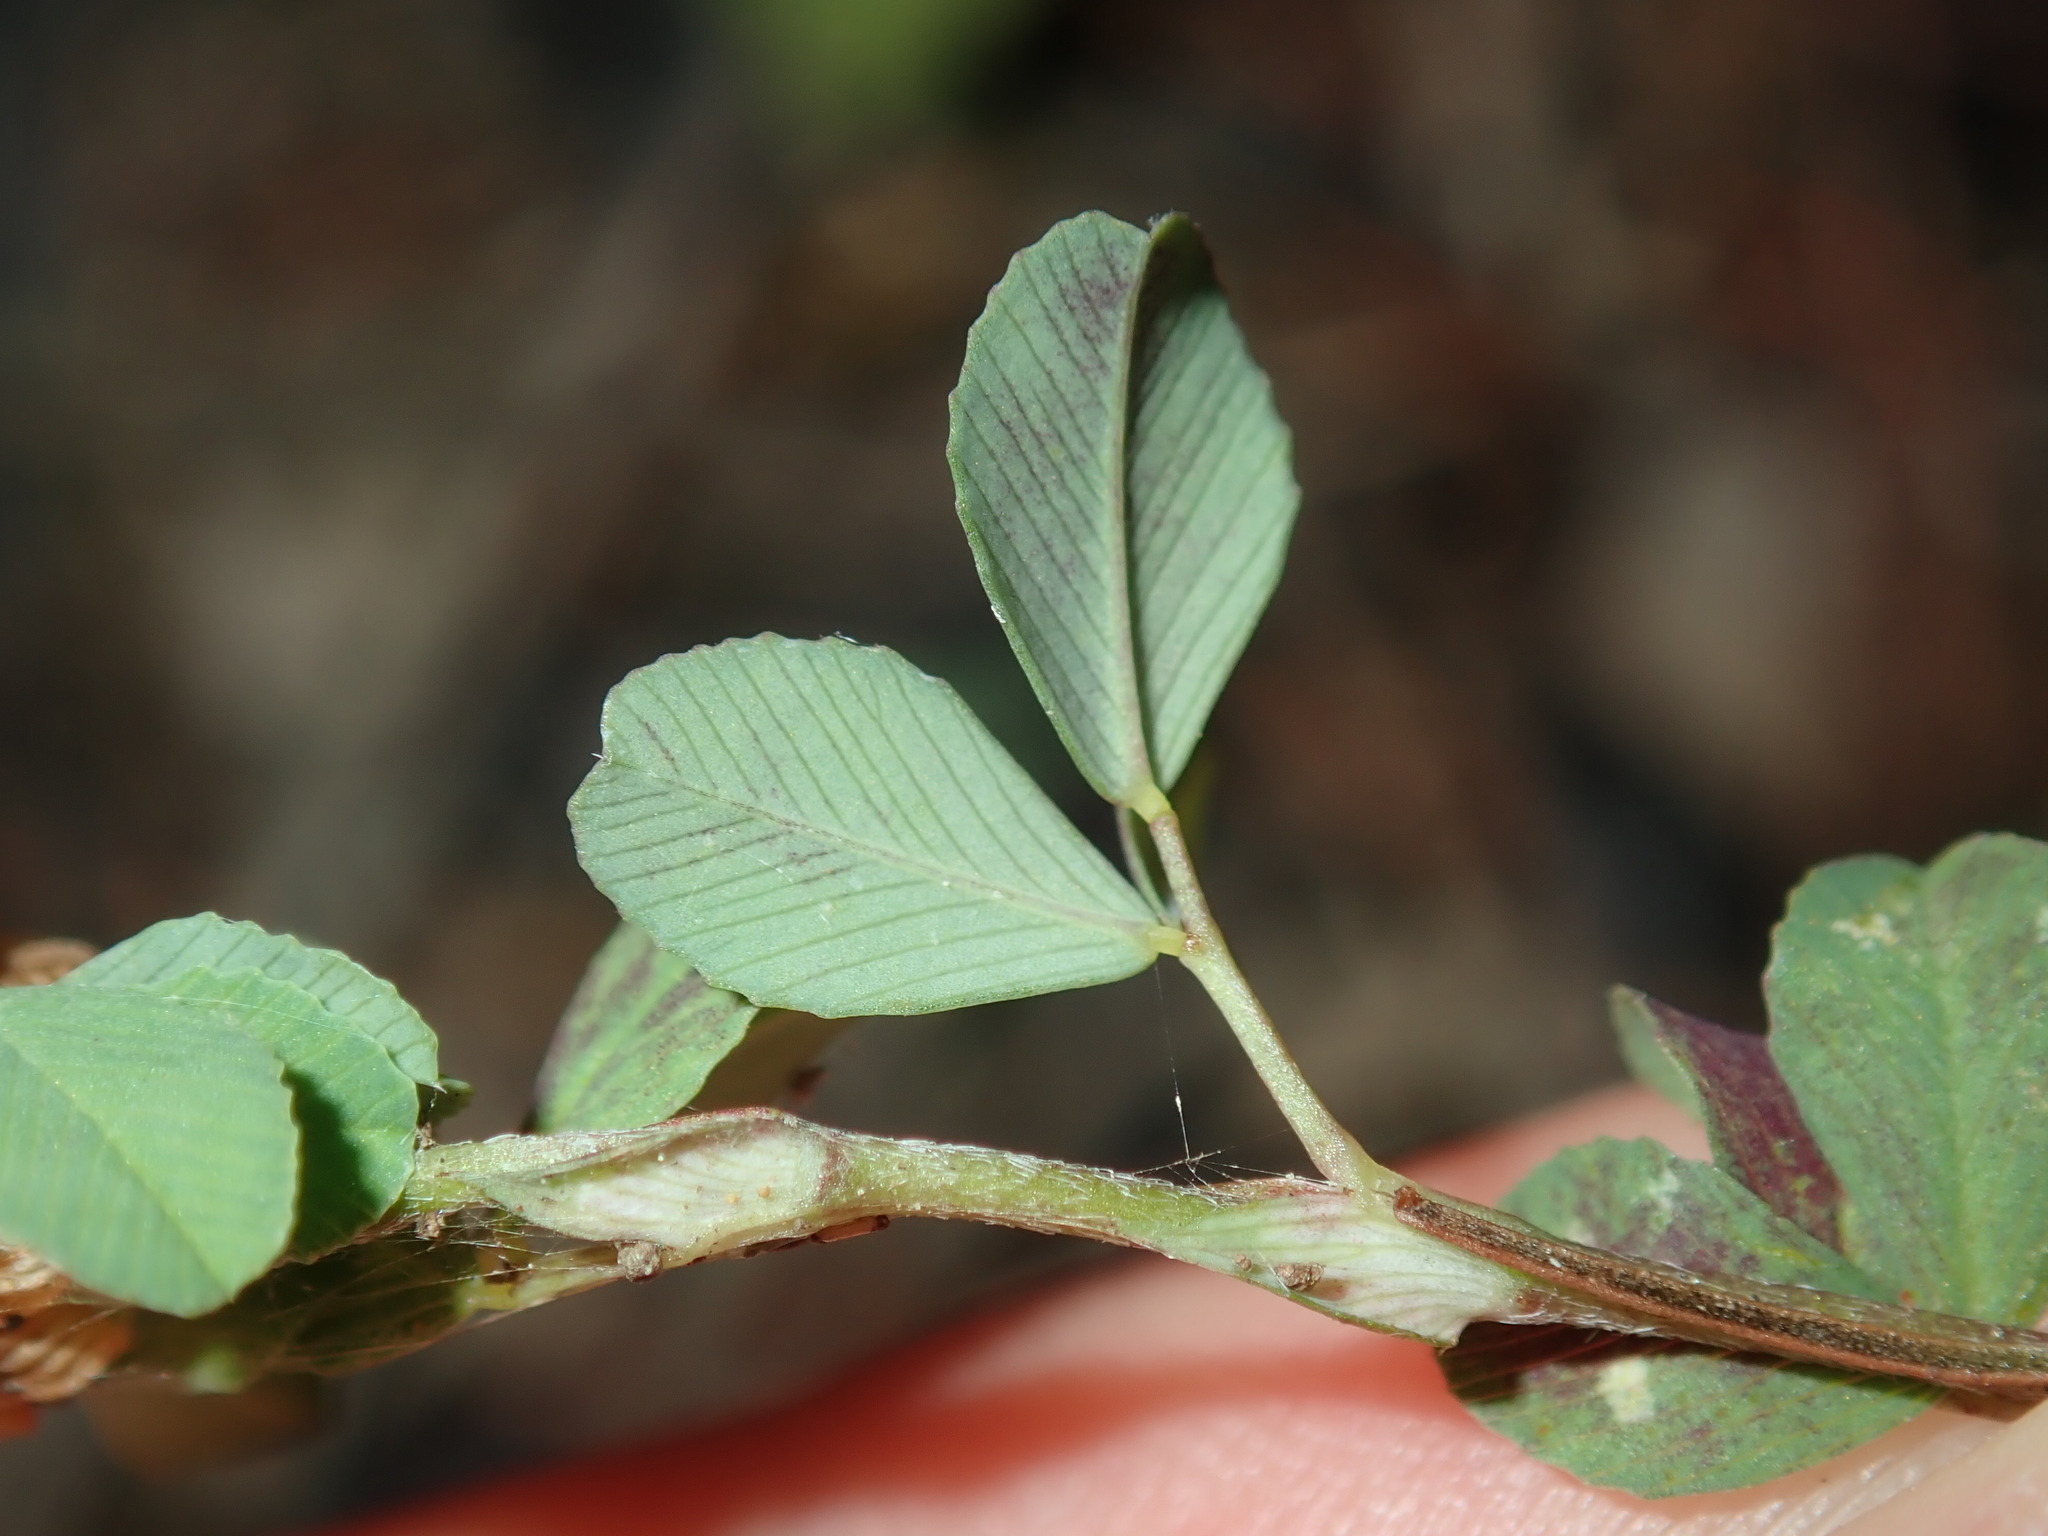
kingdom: Plantae
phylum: Tracheophyta
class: Magnoliopsida
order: Fabales
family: Fabaceae
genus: Trifolium
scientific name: Trifolium campestre
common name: Field clover
